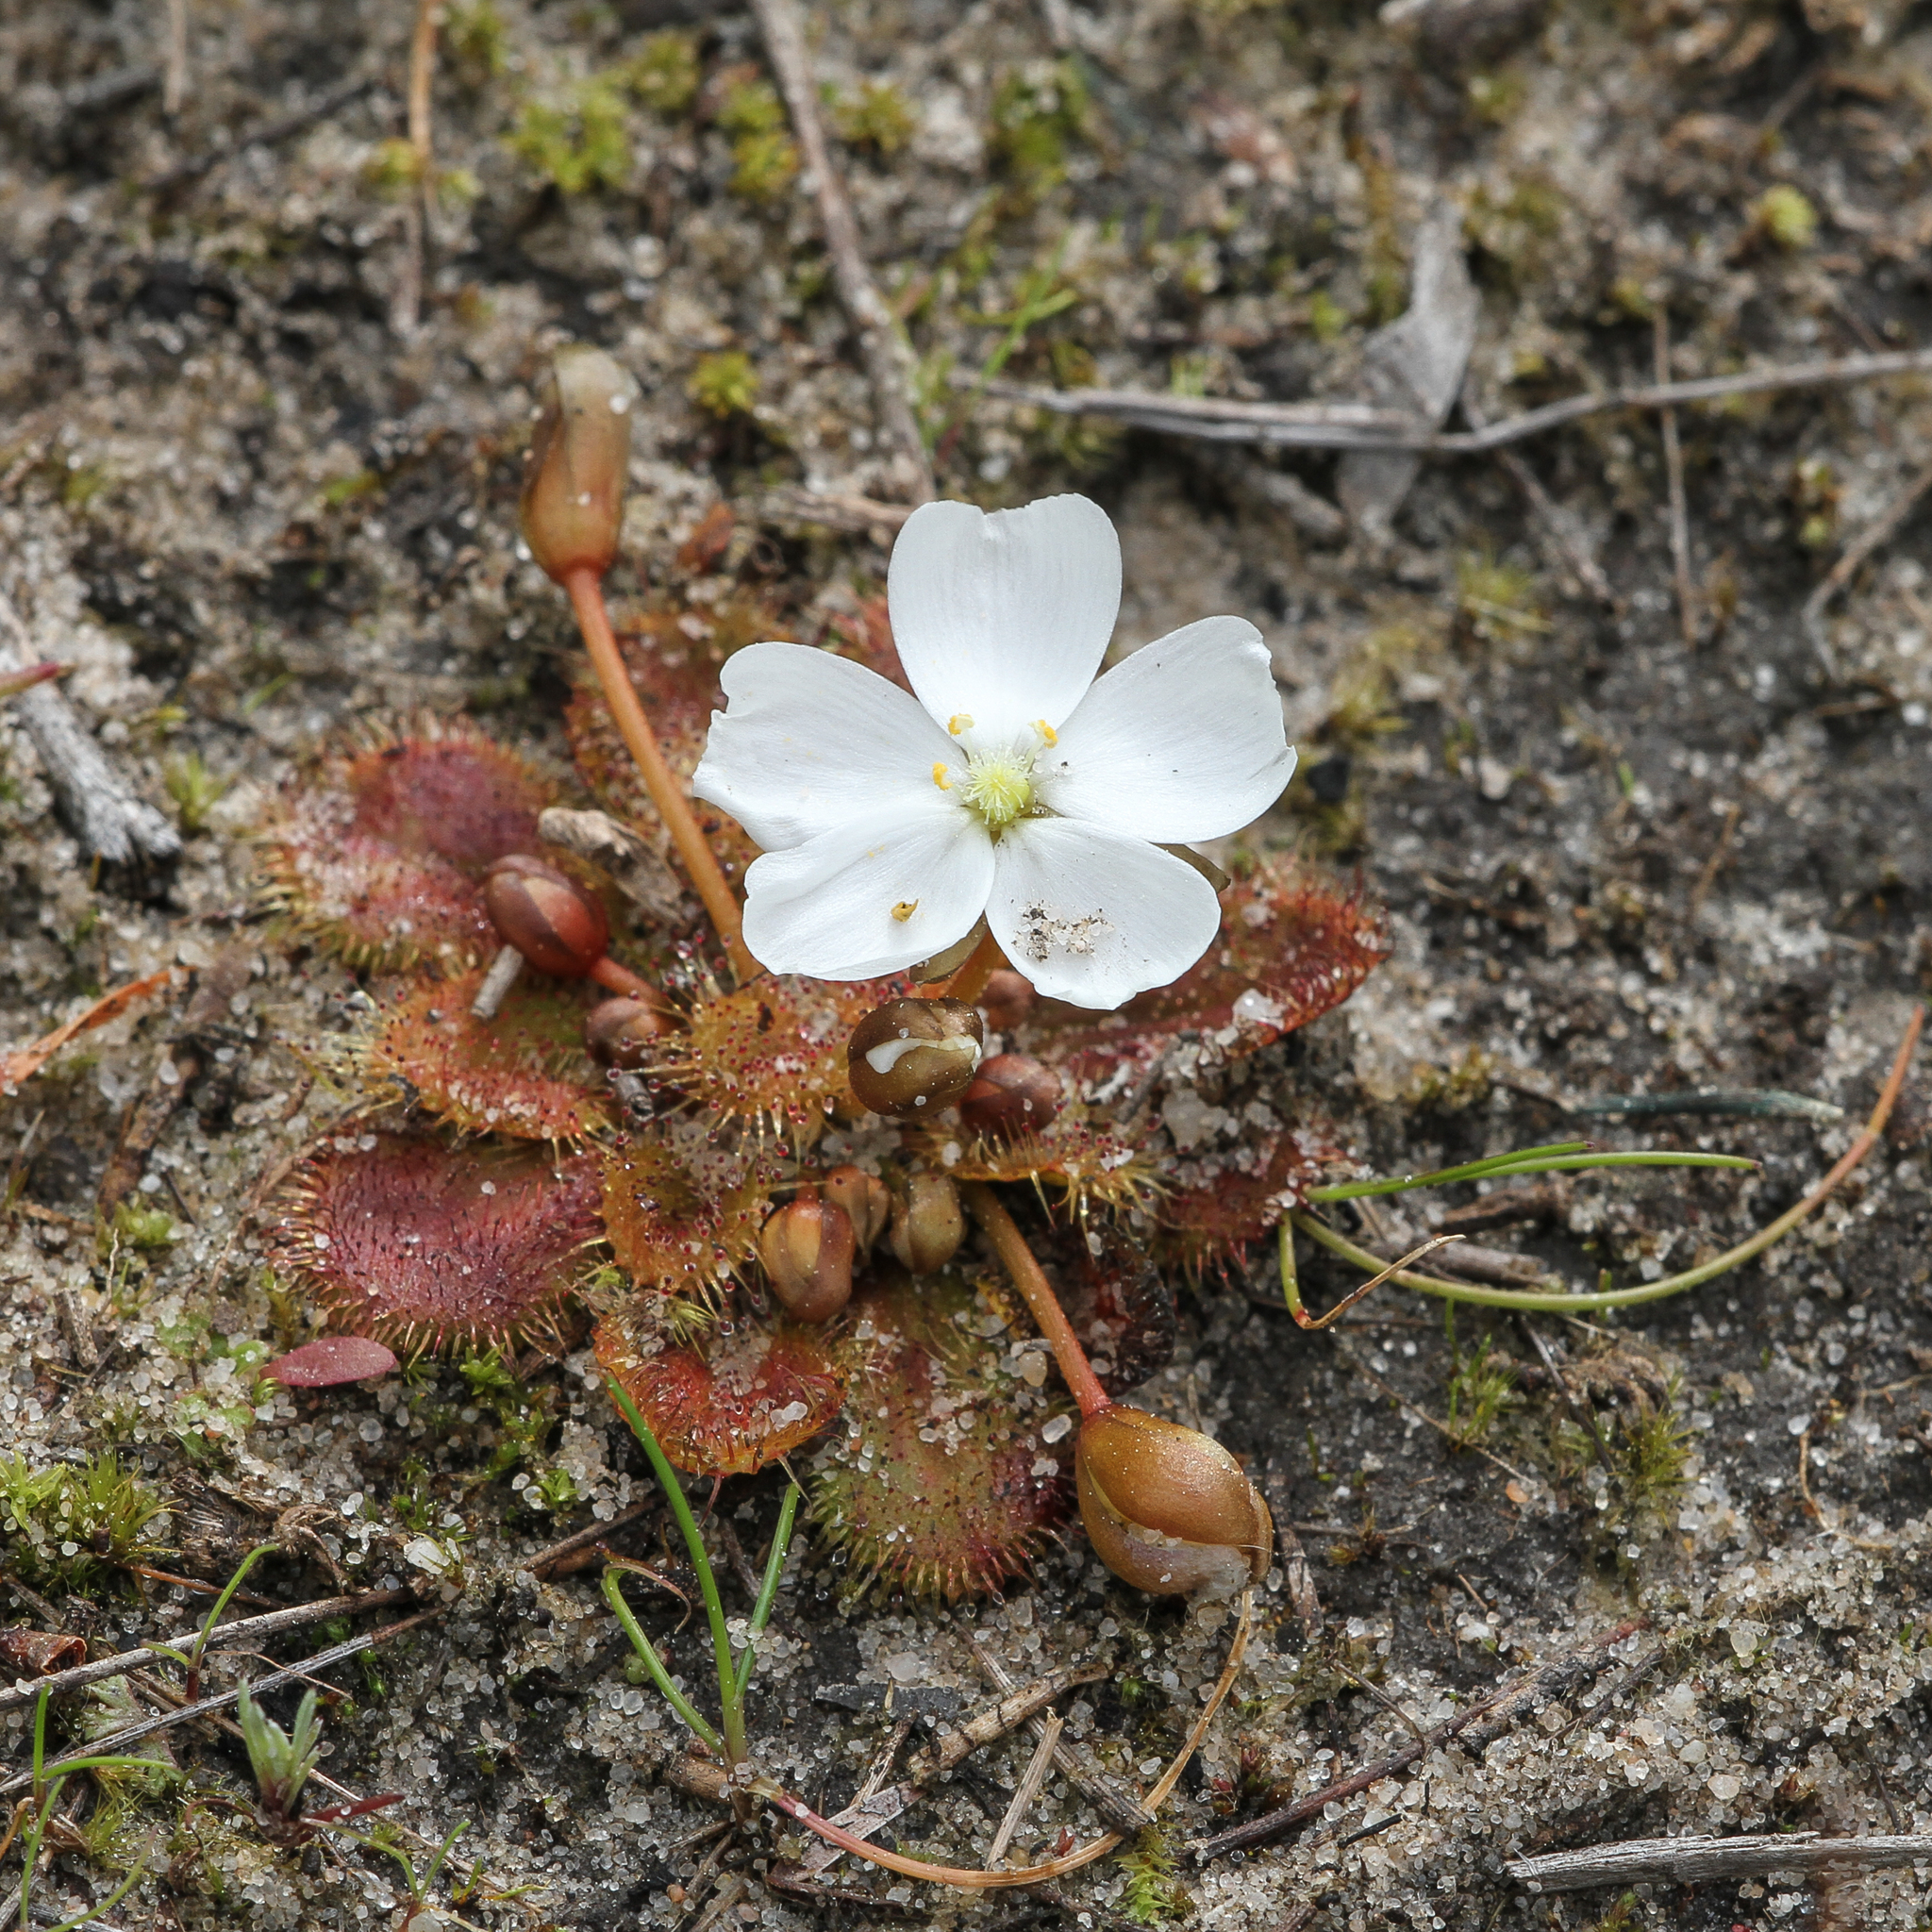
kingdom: Plantae
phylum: Tracheophyta
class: Magnoliopsida
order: Caryophyllales
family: Droseraceae
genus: Drosera
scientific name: Drosera whittakeri
